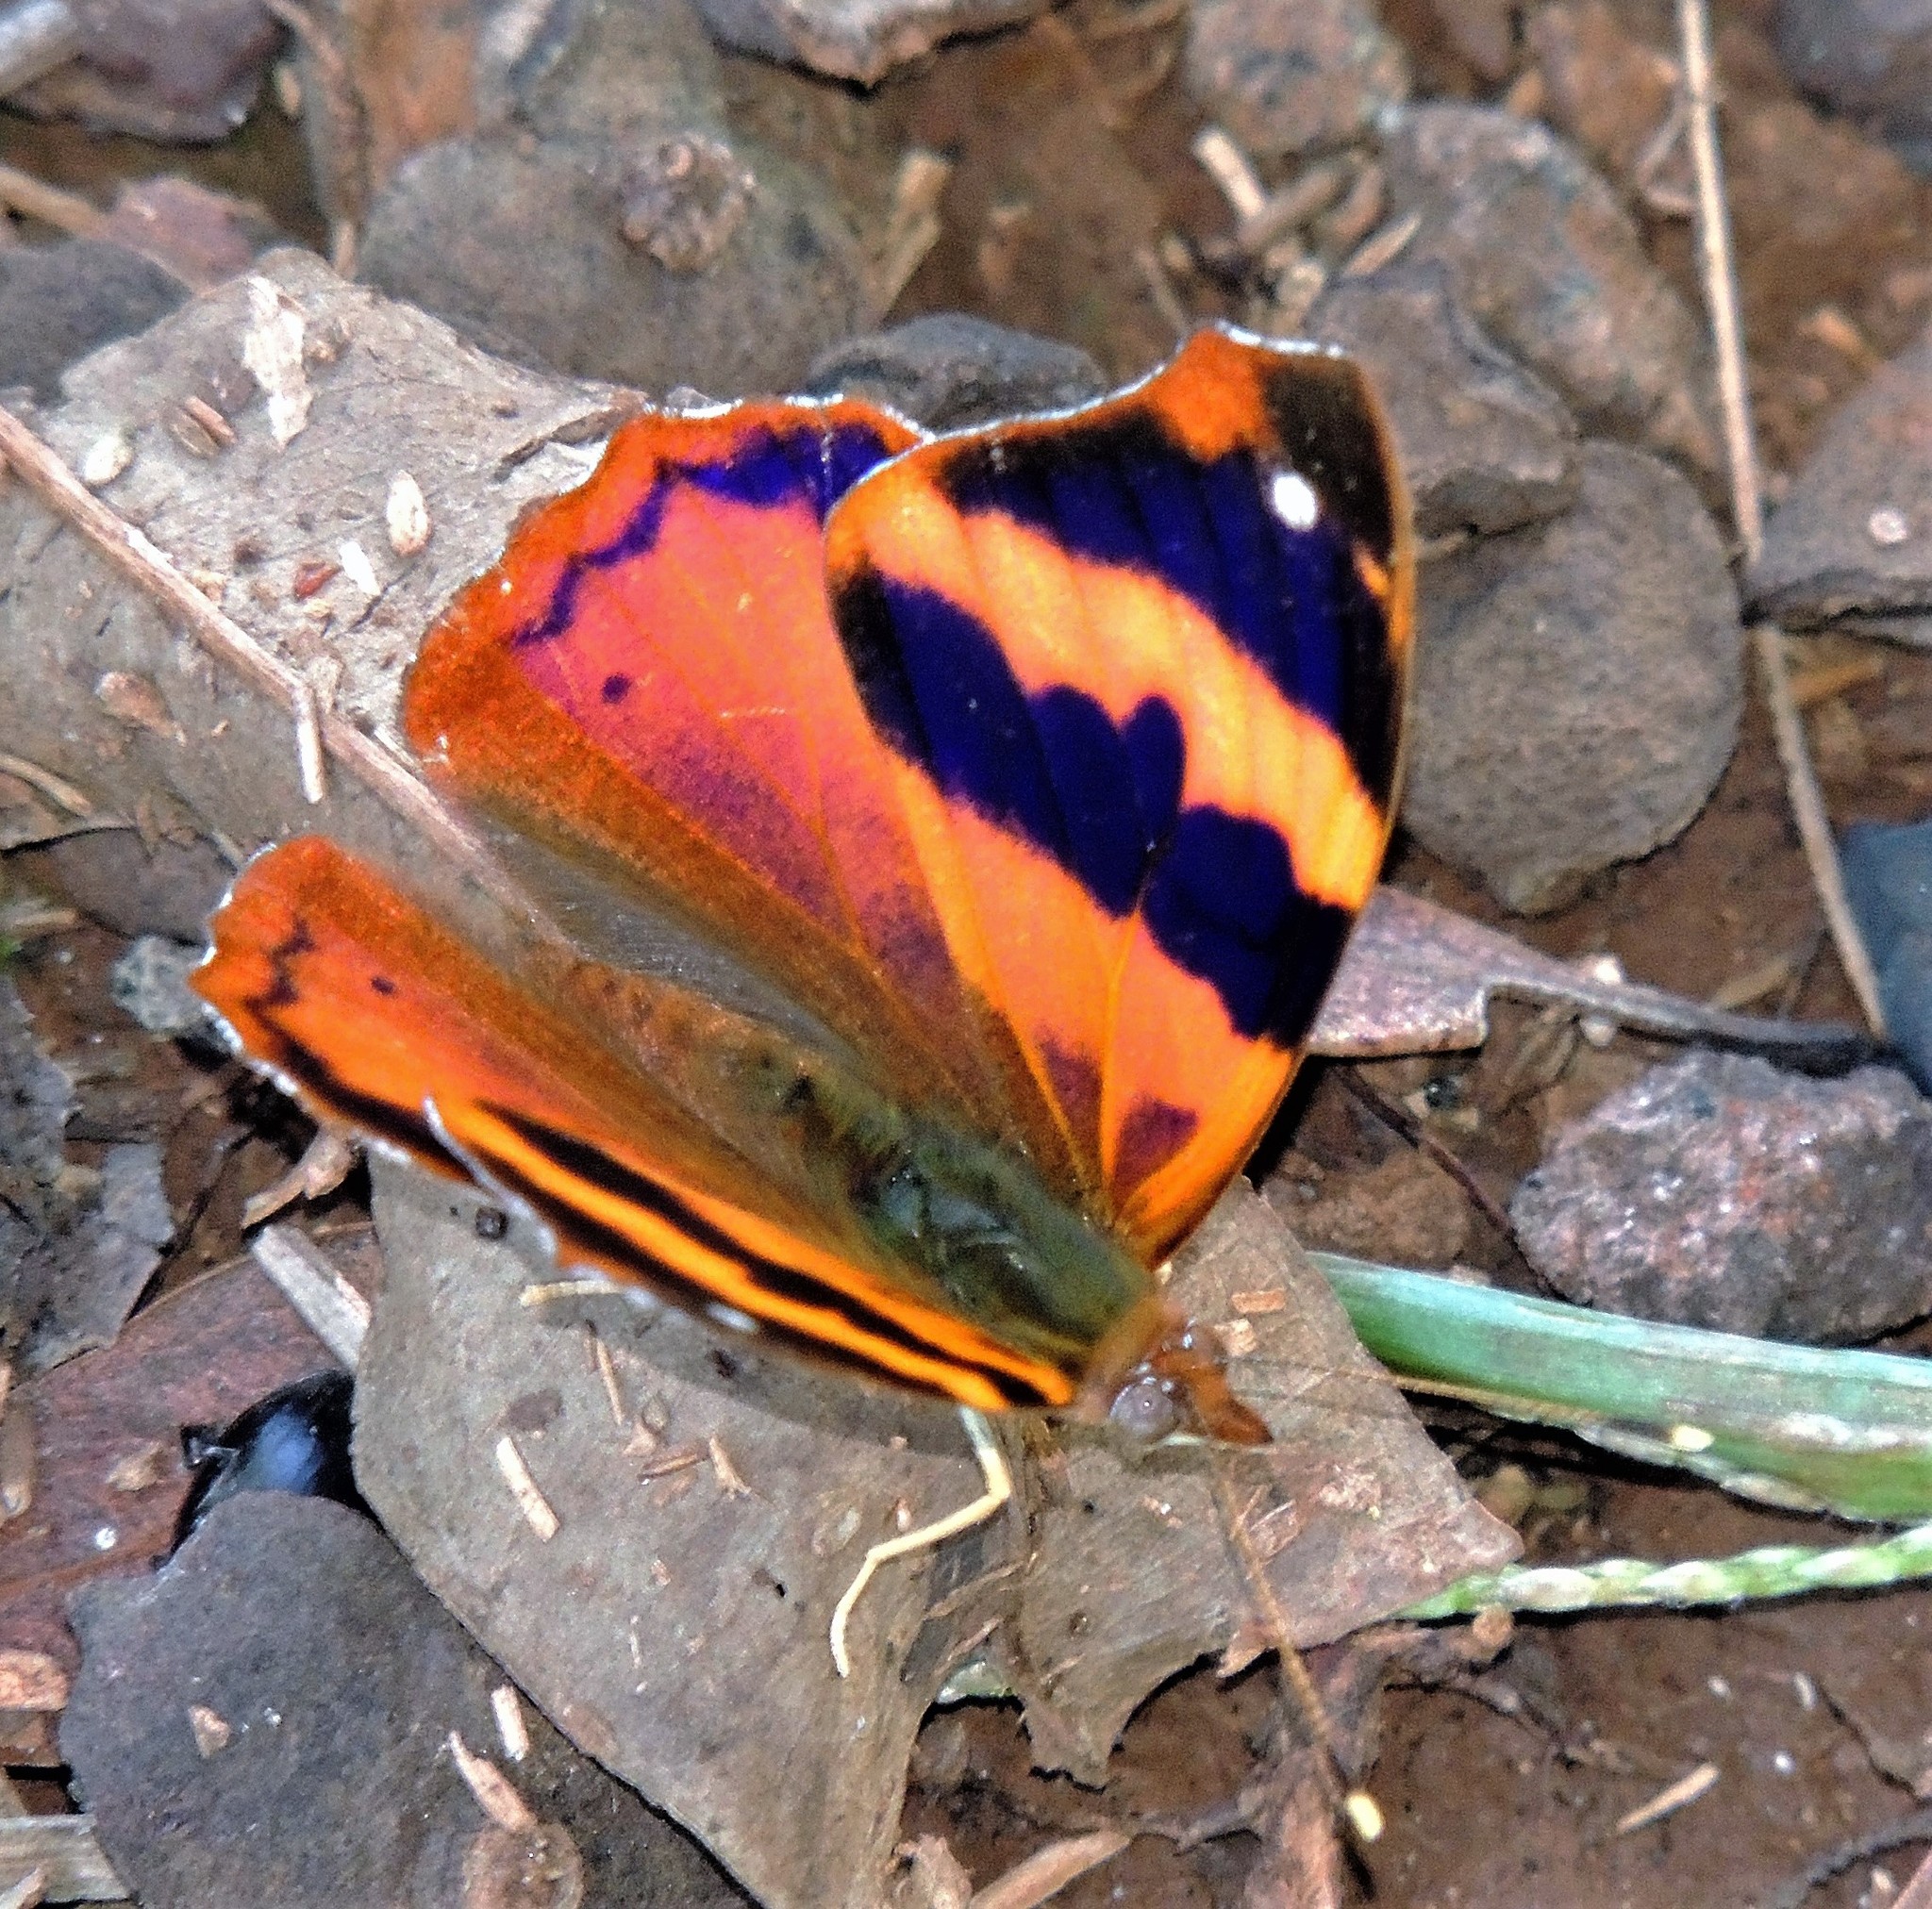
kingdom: Animalia
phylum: Arthropoda
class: Insecta
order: Lepidoptera
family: Nymphalidae
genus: Epiphile
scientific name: Epiphile hubneri
